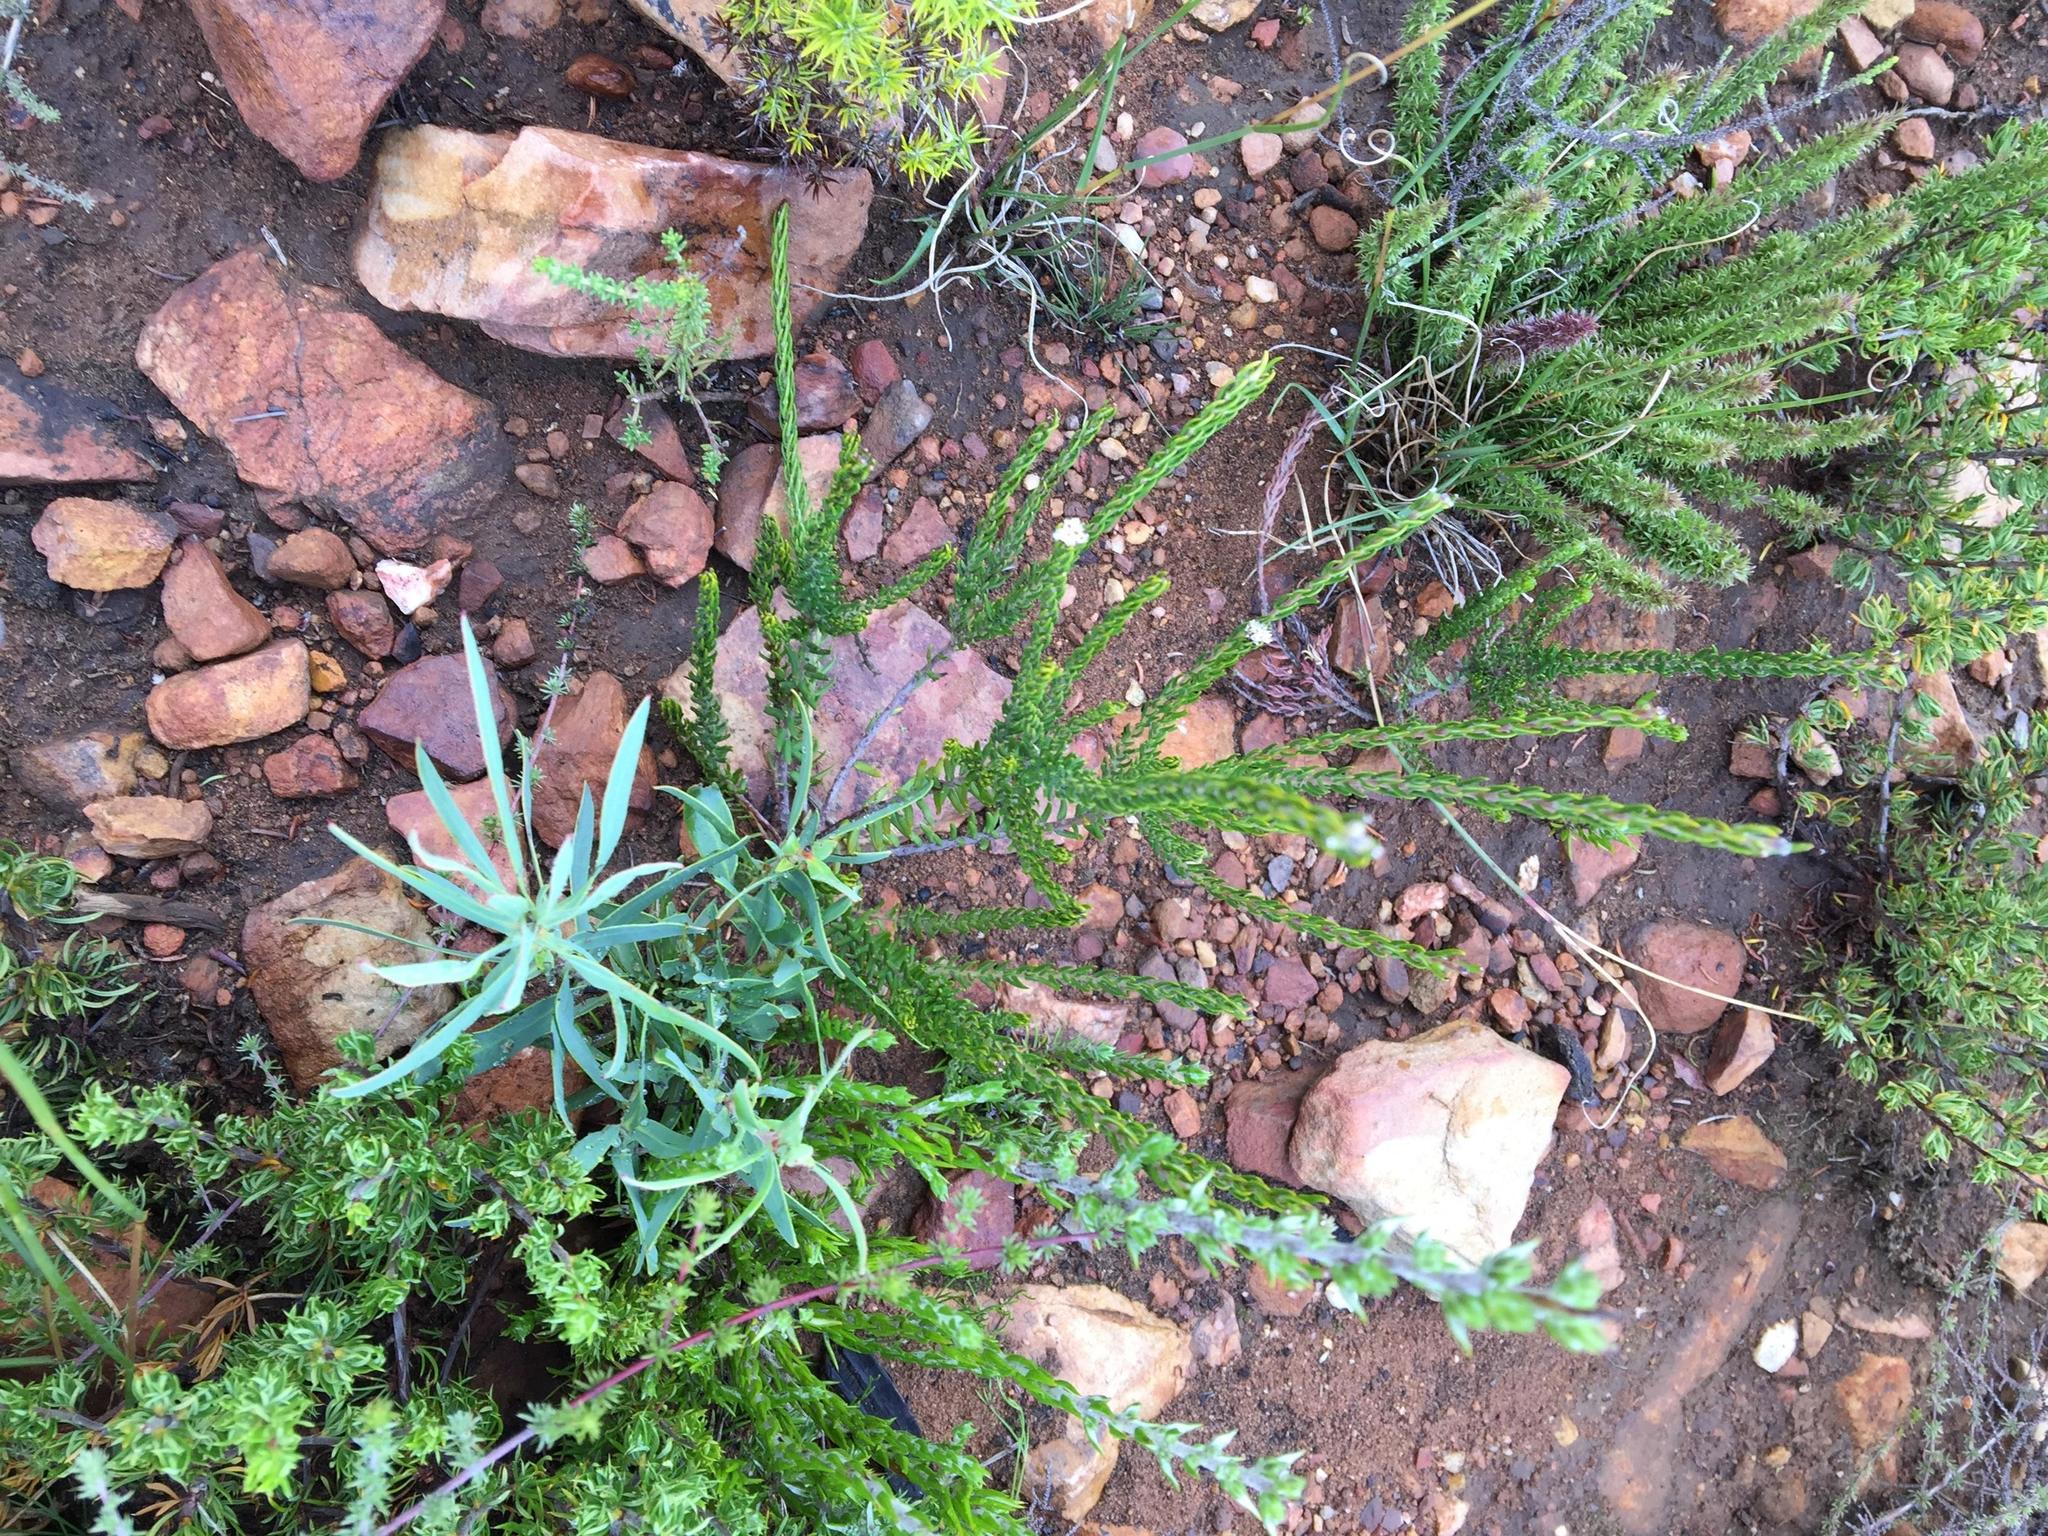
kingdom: Plantae
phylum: Tracheophyta
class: Magnoliopsida
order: Rosales
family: Rhamnaceae
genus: Phylica
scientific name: Phylica alba
